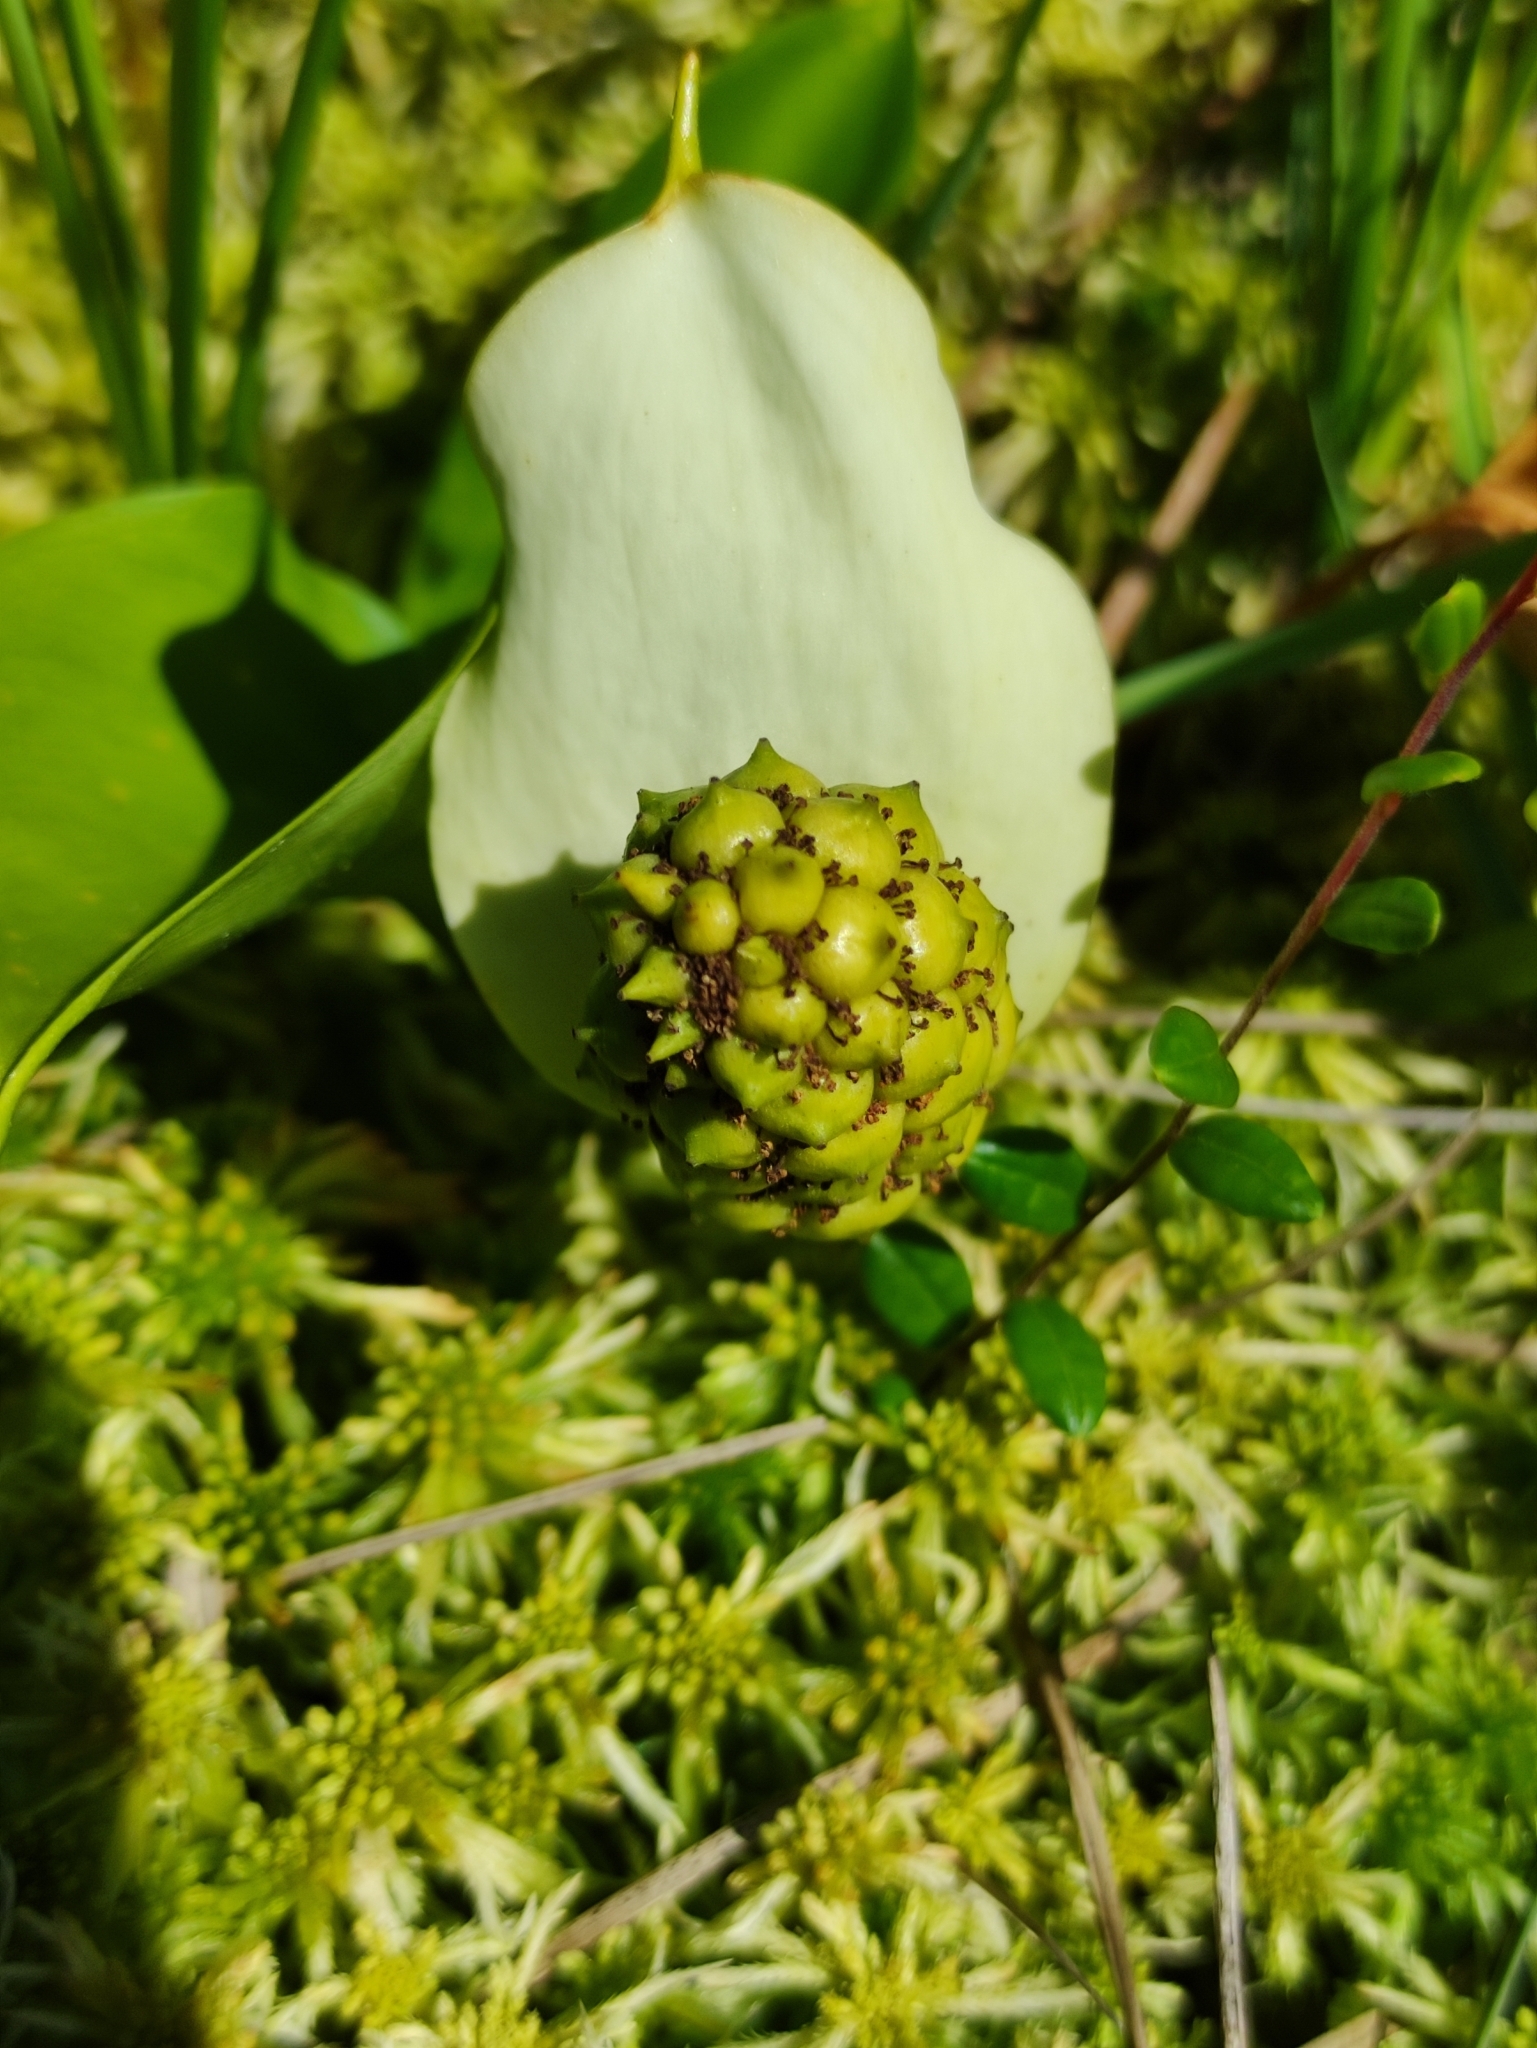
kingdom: Plantae
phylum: Tracheophyta
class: Liliopsida
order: Alismatales
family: Araceae
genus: Calla
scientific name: Calla palustris
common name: Bog arum
